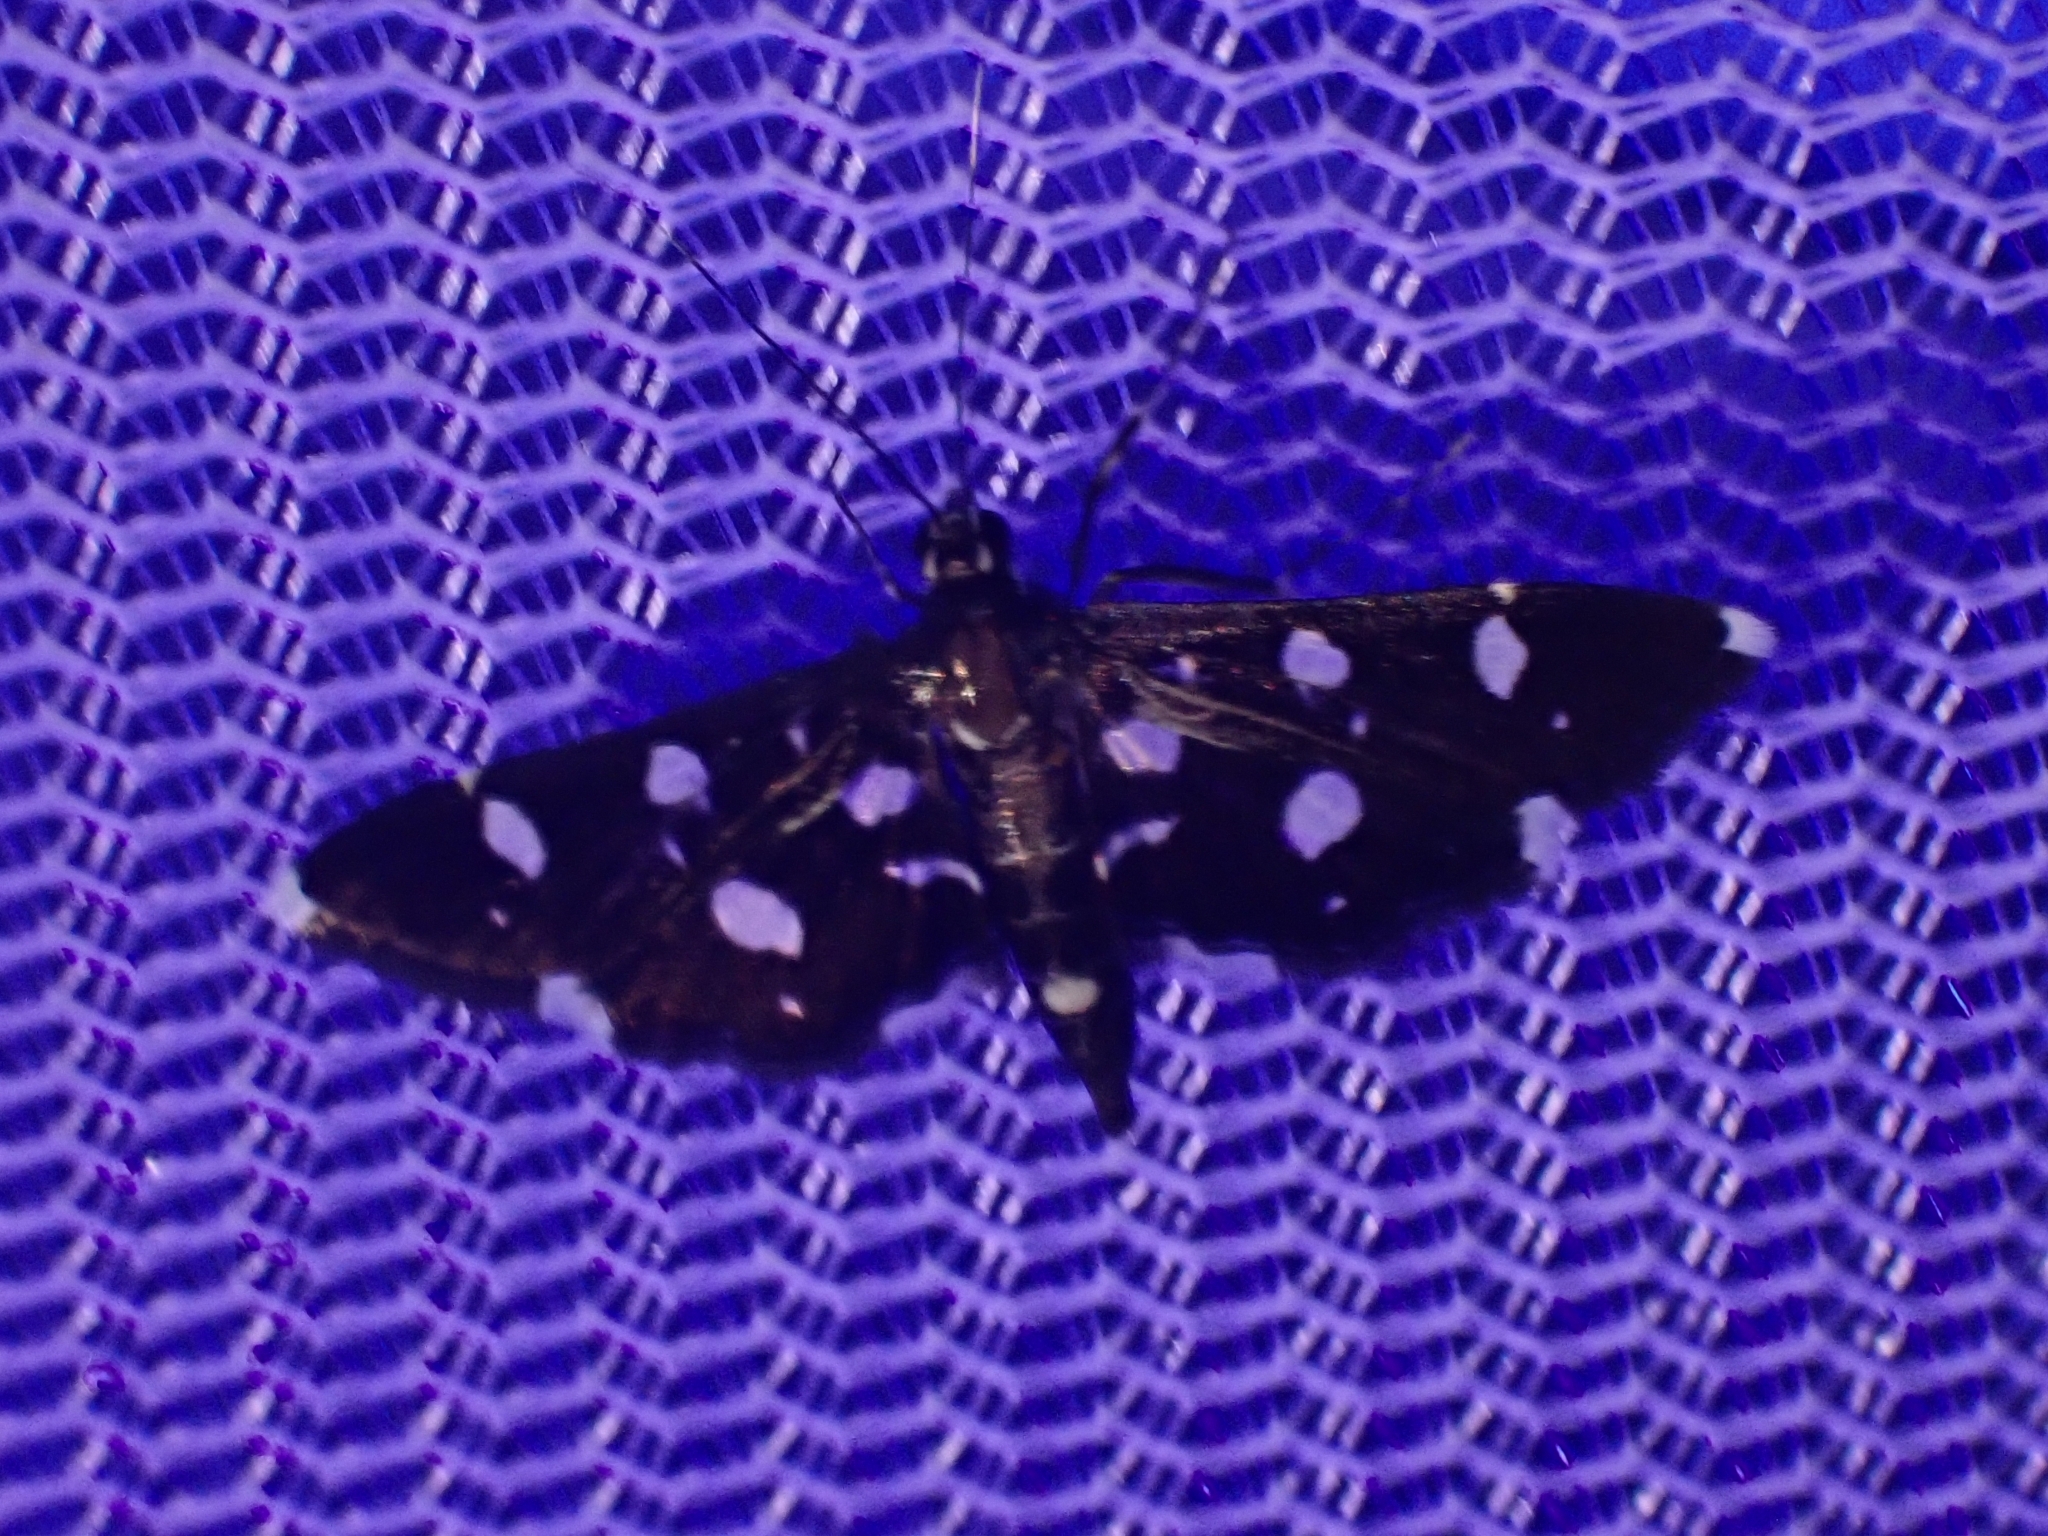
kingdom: Animalia
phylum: Arthropoda
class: Insecta
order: Lepidoptera
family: Crambidae
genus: Bocchoris
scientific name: Bocchoris inspersalis
